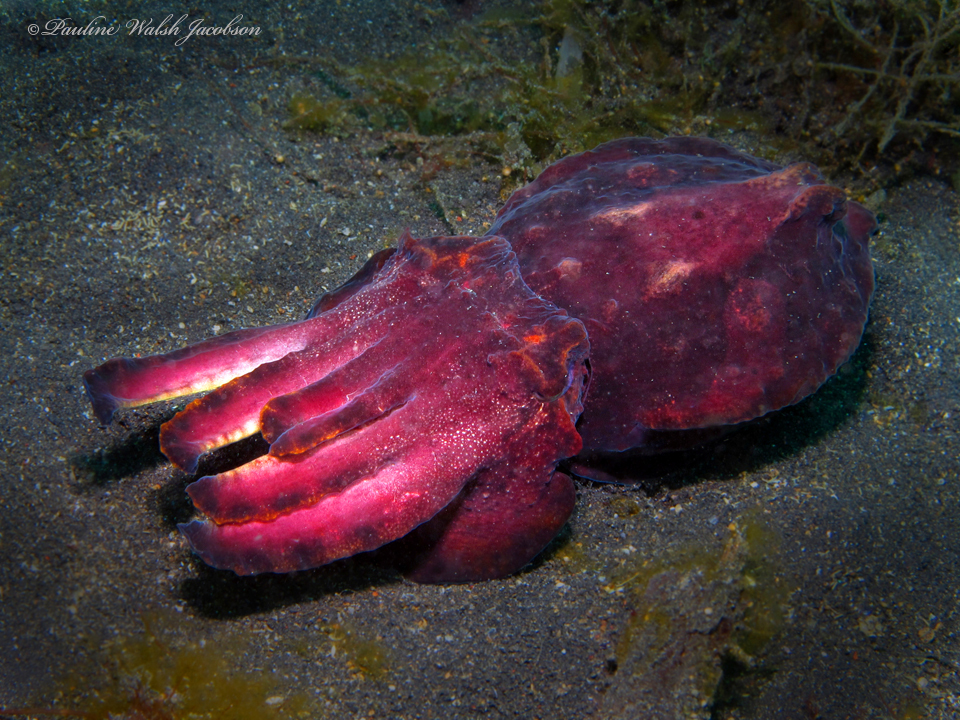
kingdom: Animalia
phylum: Mollusca
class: Cephalopoda
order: Sepiida
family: Sepiidae
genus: Ascarosepion
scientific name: Ascarosepion pfefferi
